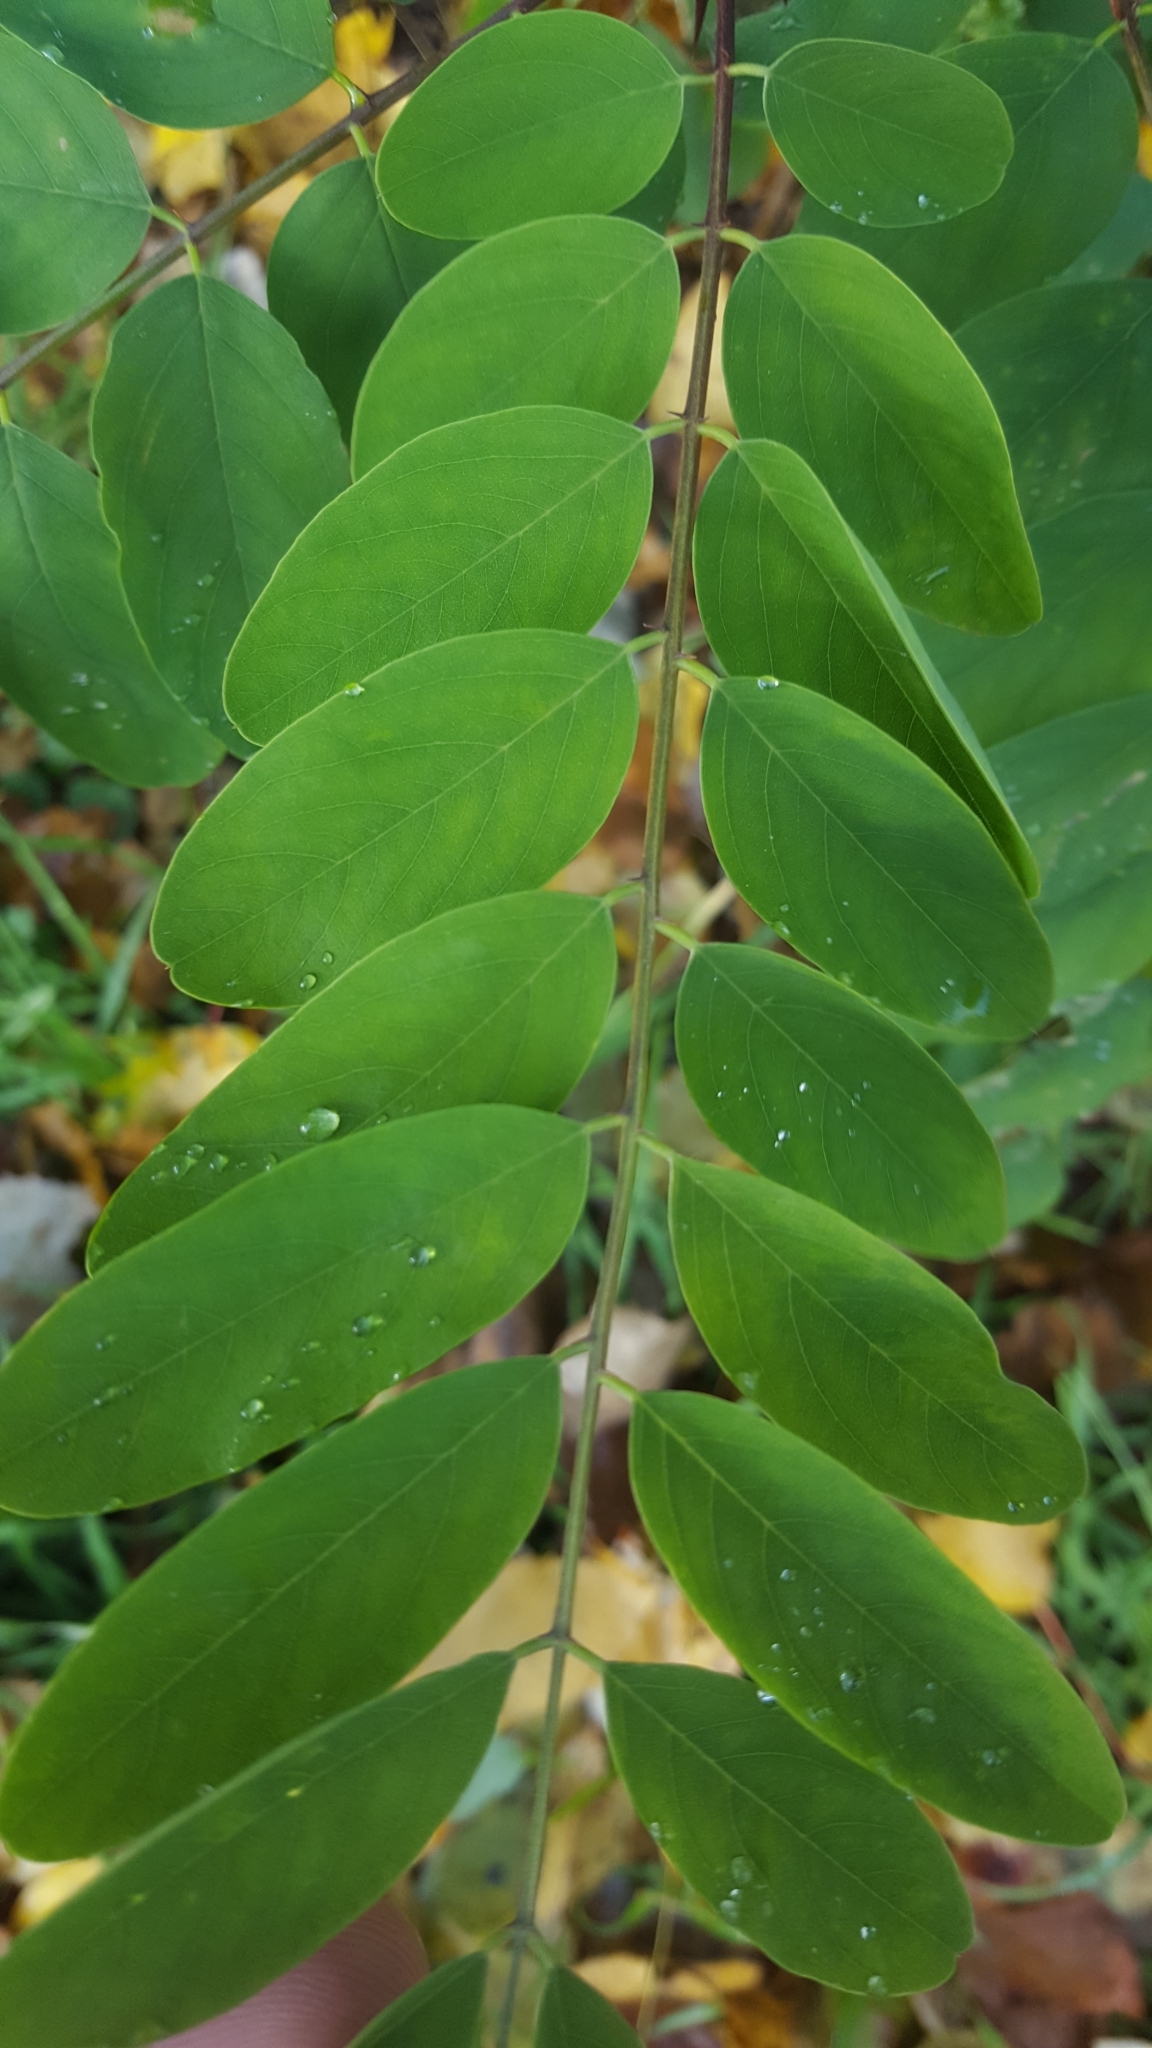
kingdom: Plantae
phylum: Tracheophyta
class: Magnoliopsida
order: Fabales
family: Fabaceae
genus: Robinia
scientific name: Robinia pseudoacacia
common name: Black locust
